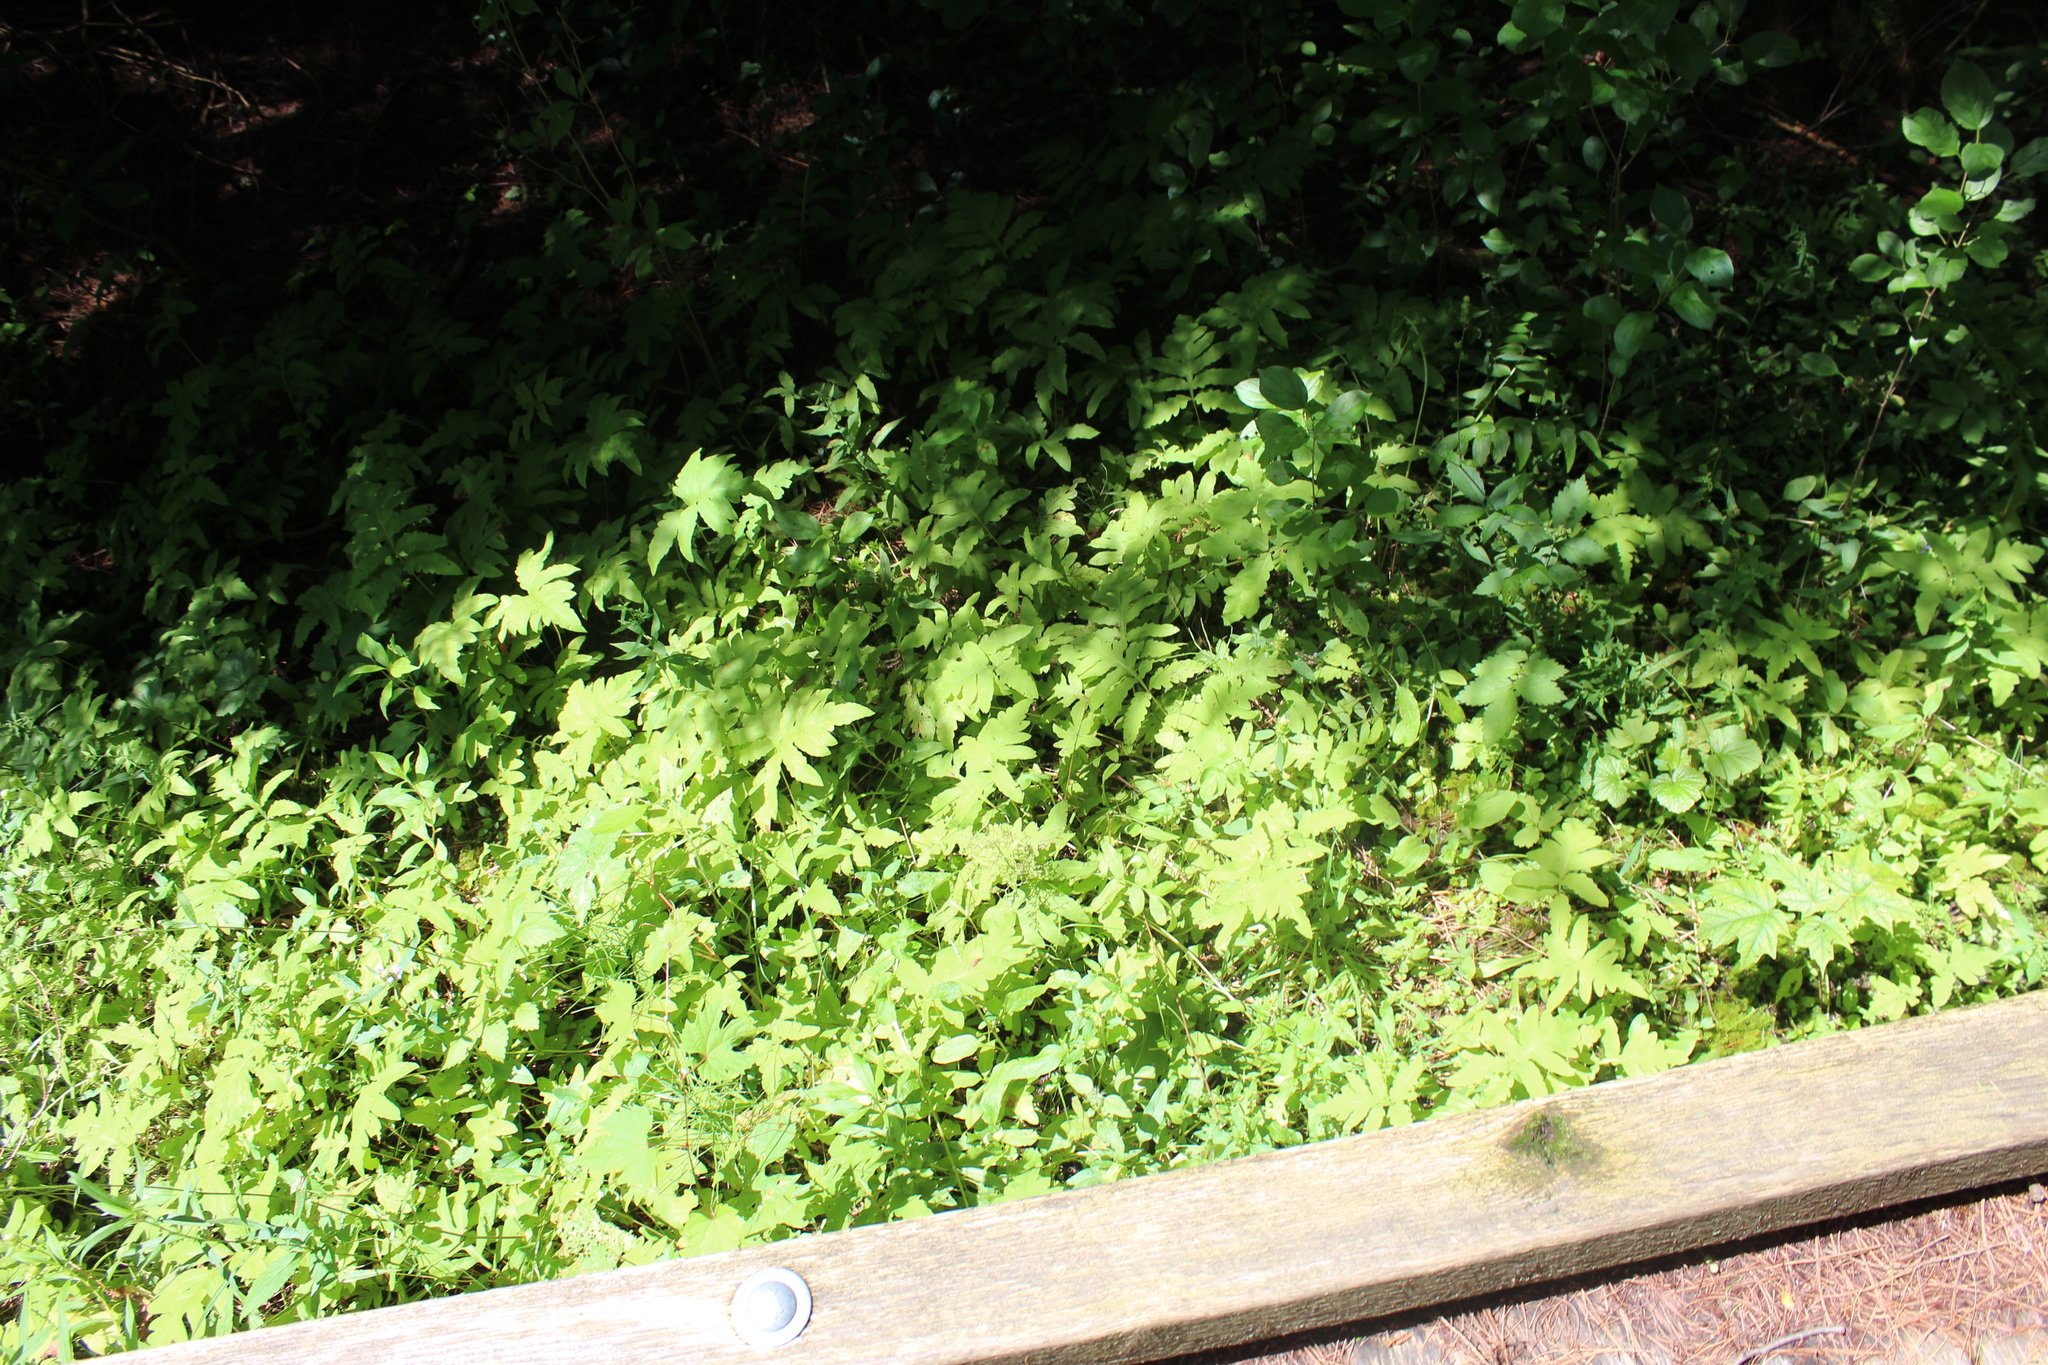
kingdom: Plantae
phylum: Tracheophyta
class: Polypodiopsida
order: Polypodiales
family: Onocleaceae
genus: Onoclea
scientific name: Onoclea sensibilis
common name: Sensitive fern
